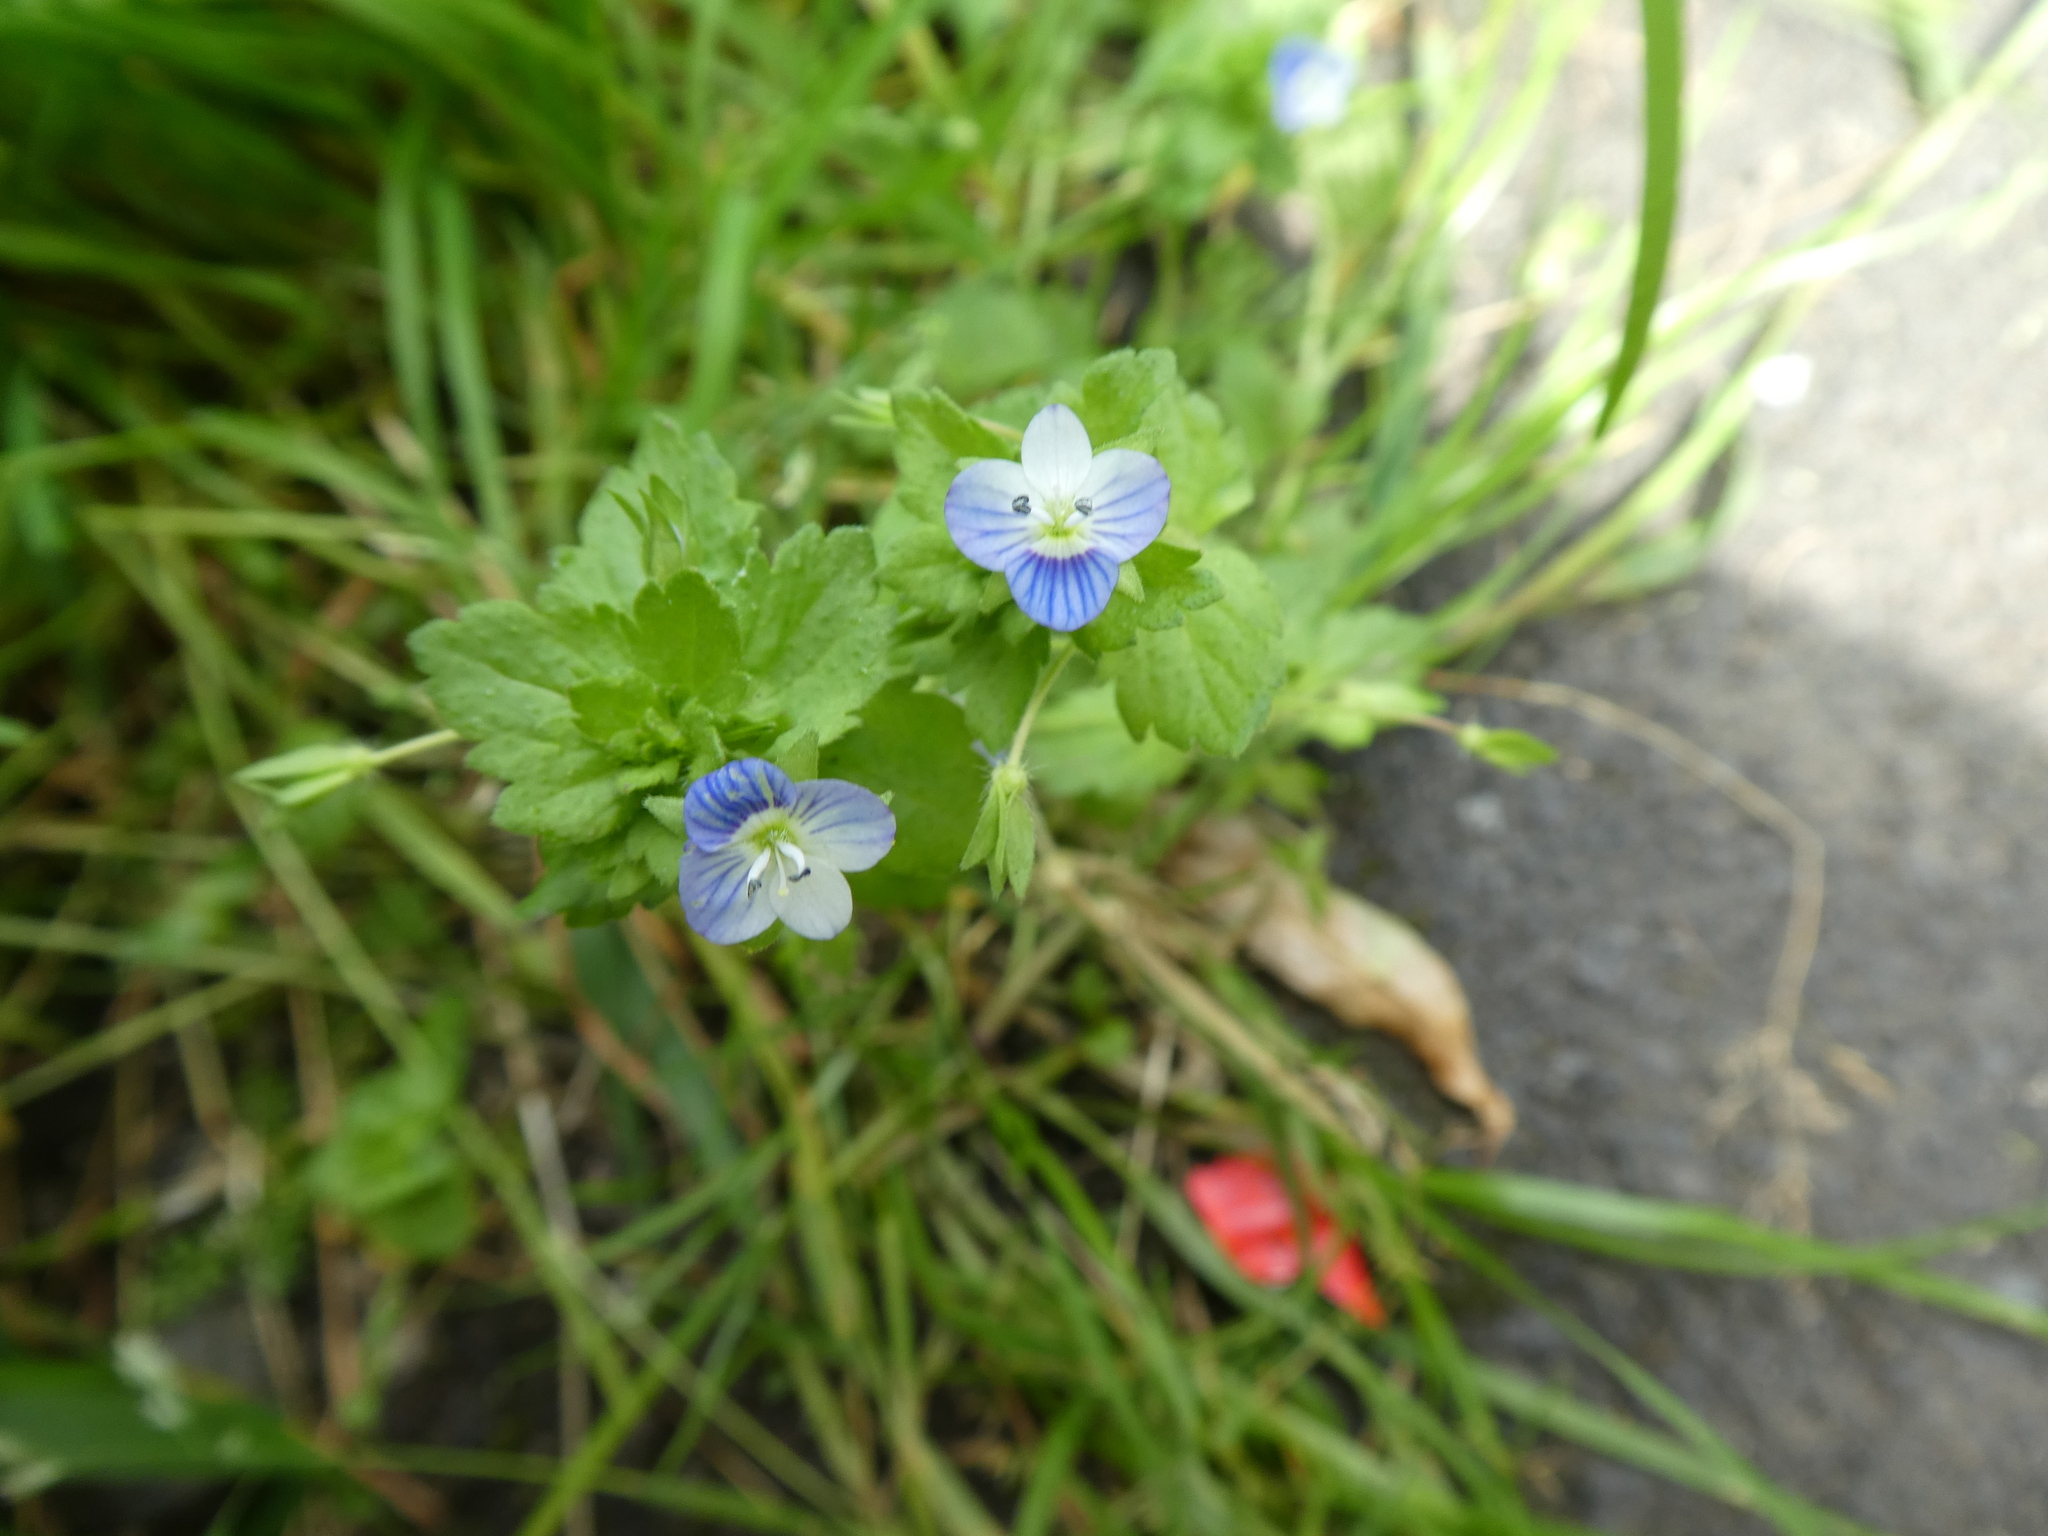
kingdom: Plantae
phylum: Tracheophyta
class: Magnoliopsida
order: Lamiales
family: Plantaginaceae
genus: Veronica
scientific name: Veronica persica
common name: Common field-speedwell
